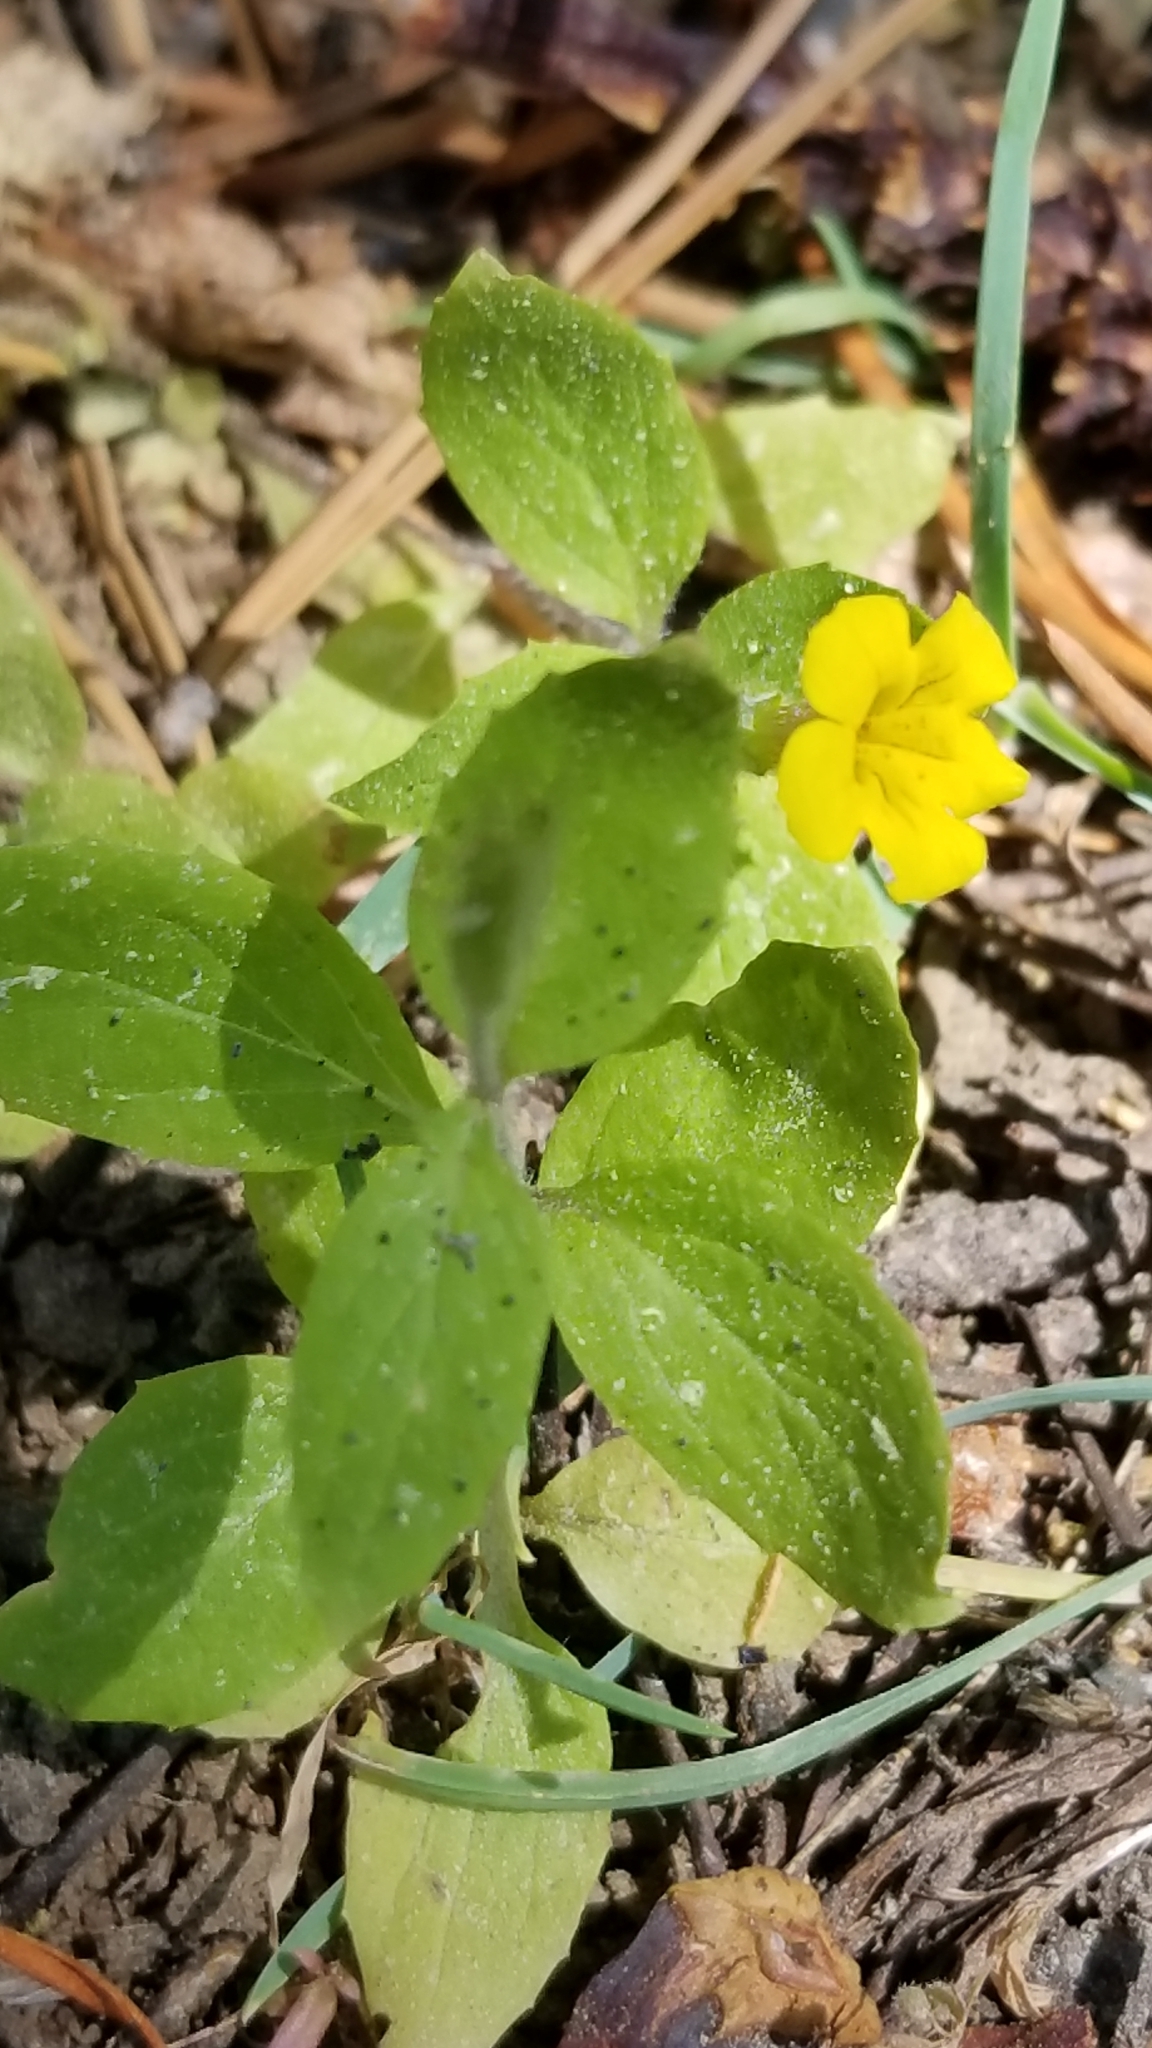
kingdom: Plantae
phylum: Tracheophyta
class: Magnoliopsida
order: Lamiales
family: Phrymaceae
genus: Erythranthe
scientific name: Erythranthe moschata
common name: Muskflower
